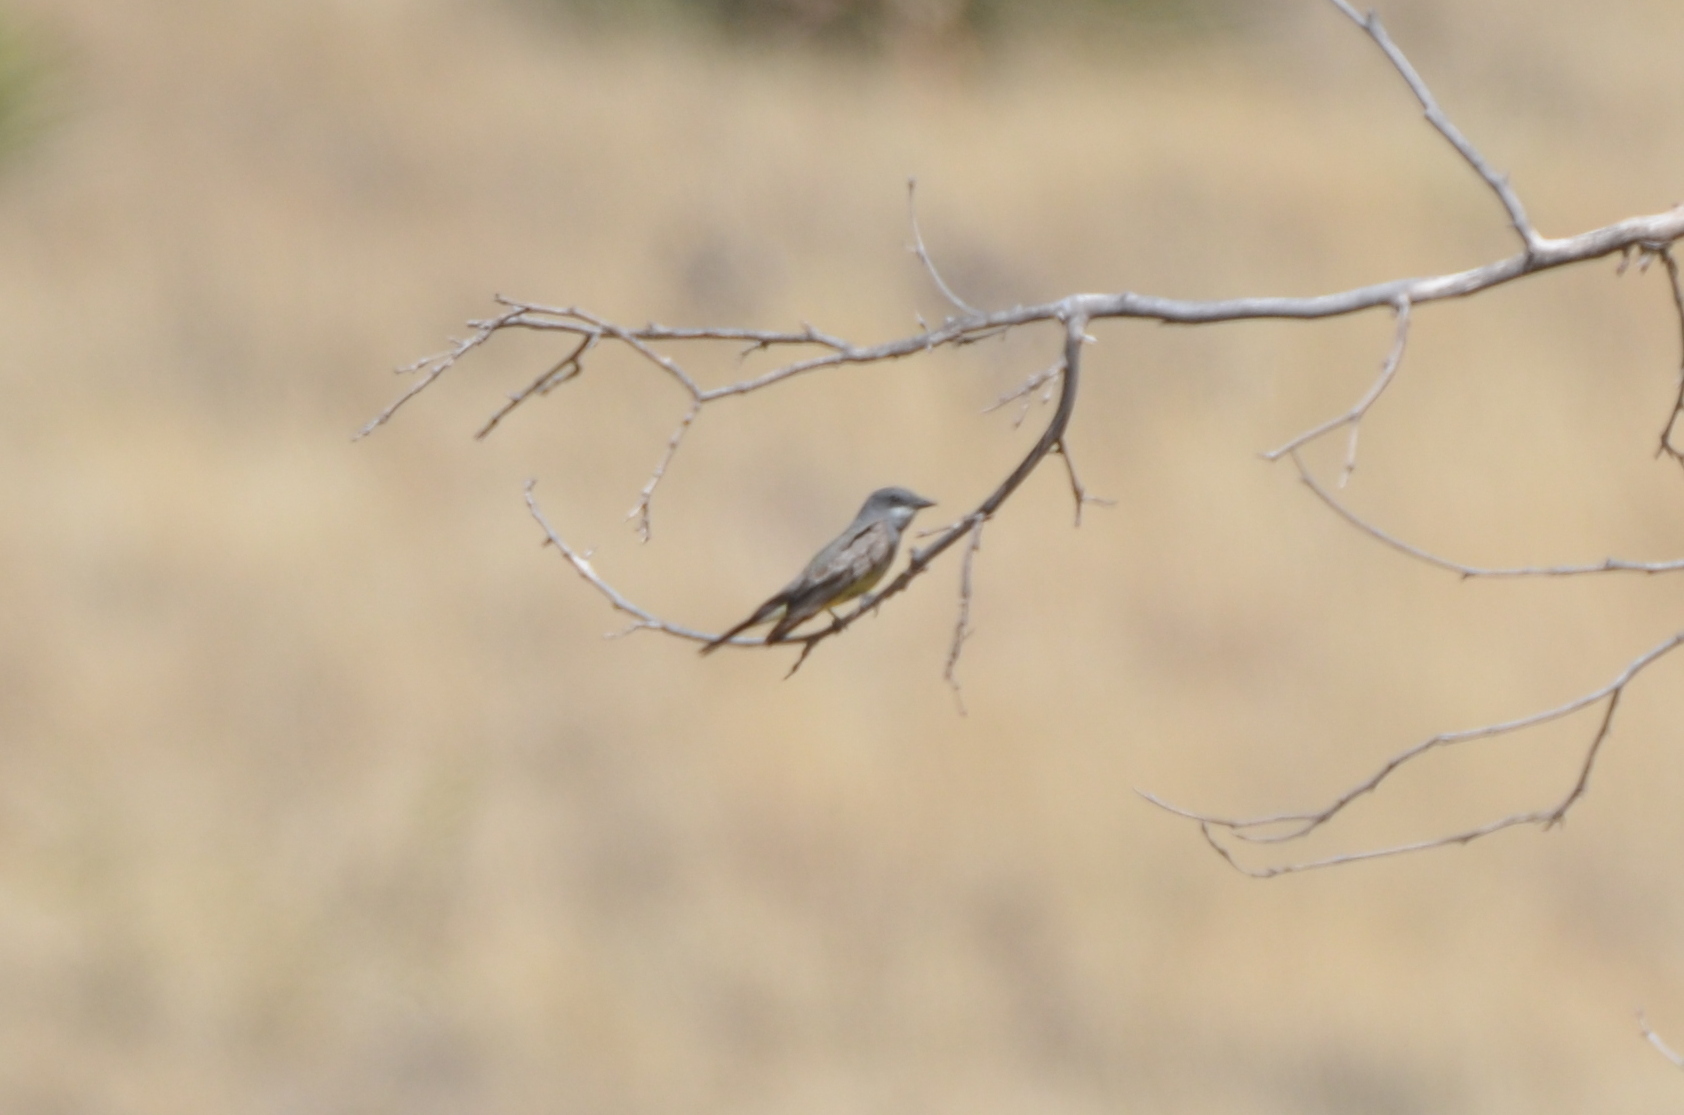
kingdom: Animalia
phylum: Chordata
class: Aves
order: Passeriformes
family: Tyrannidae
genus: Tyrannus
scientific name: Tyrannus vociferans
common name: Cassin's kingbird
